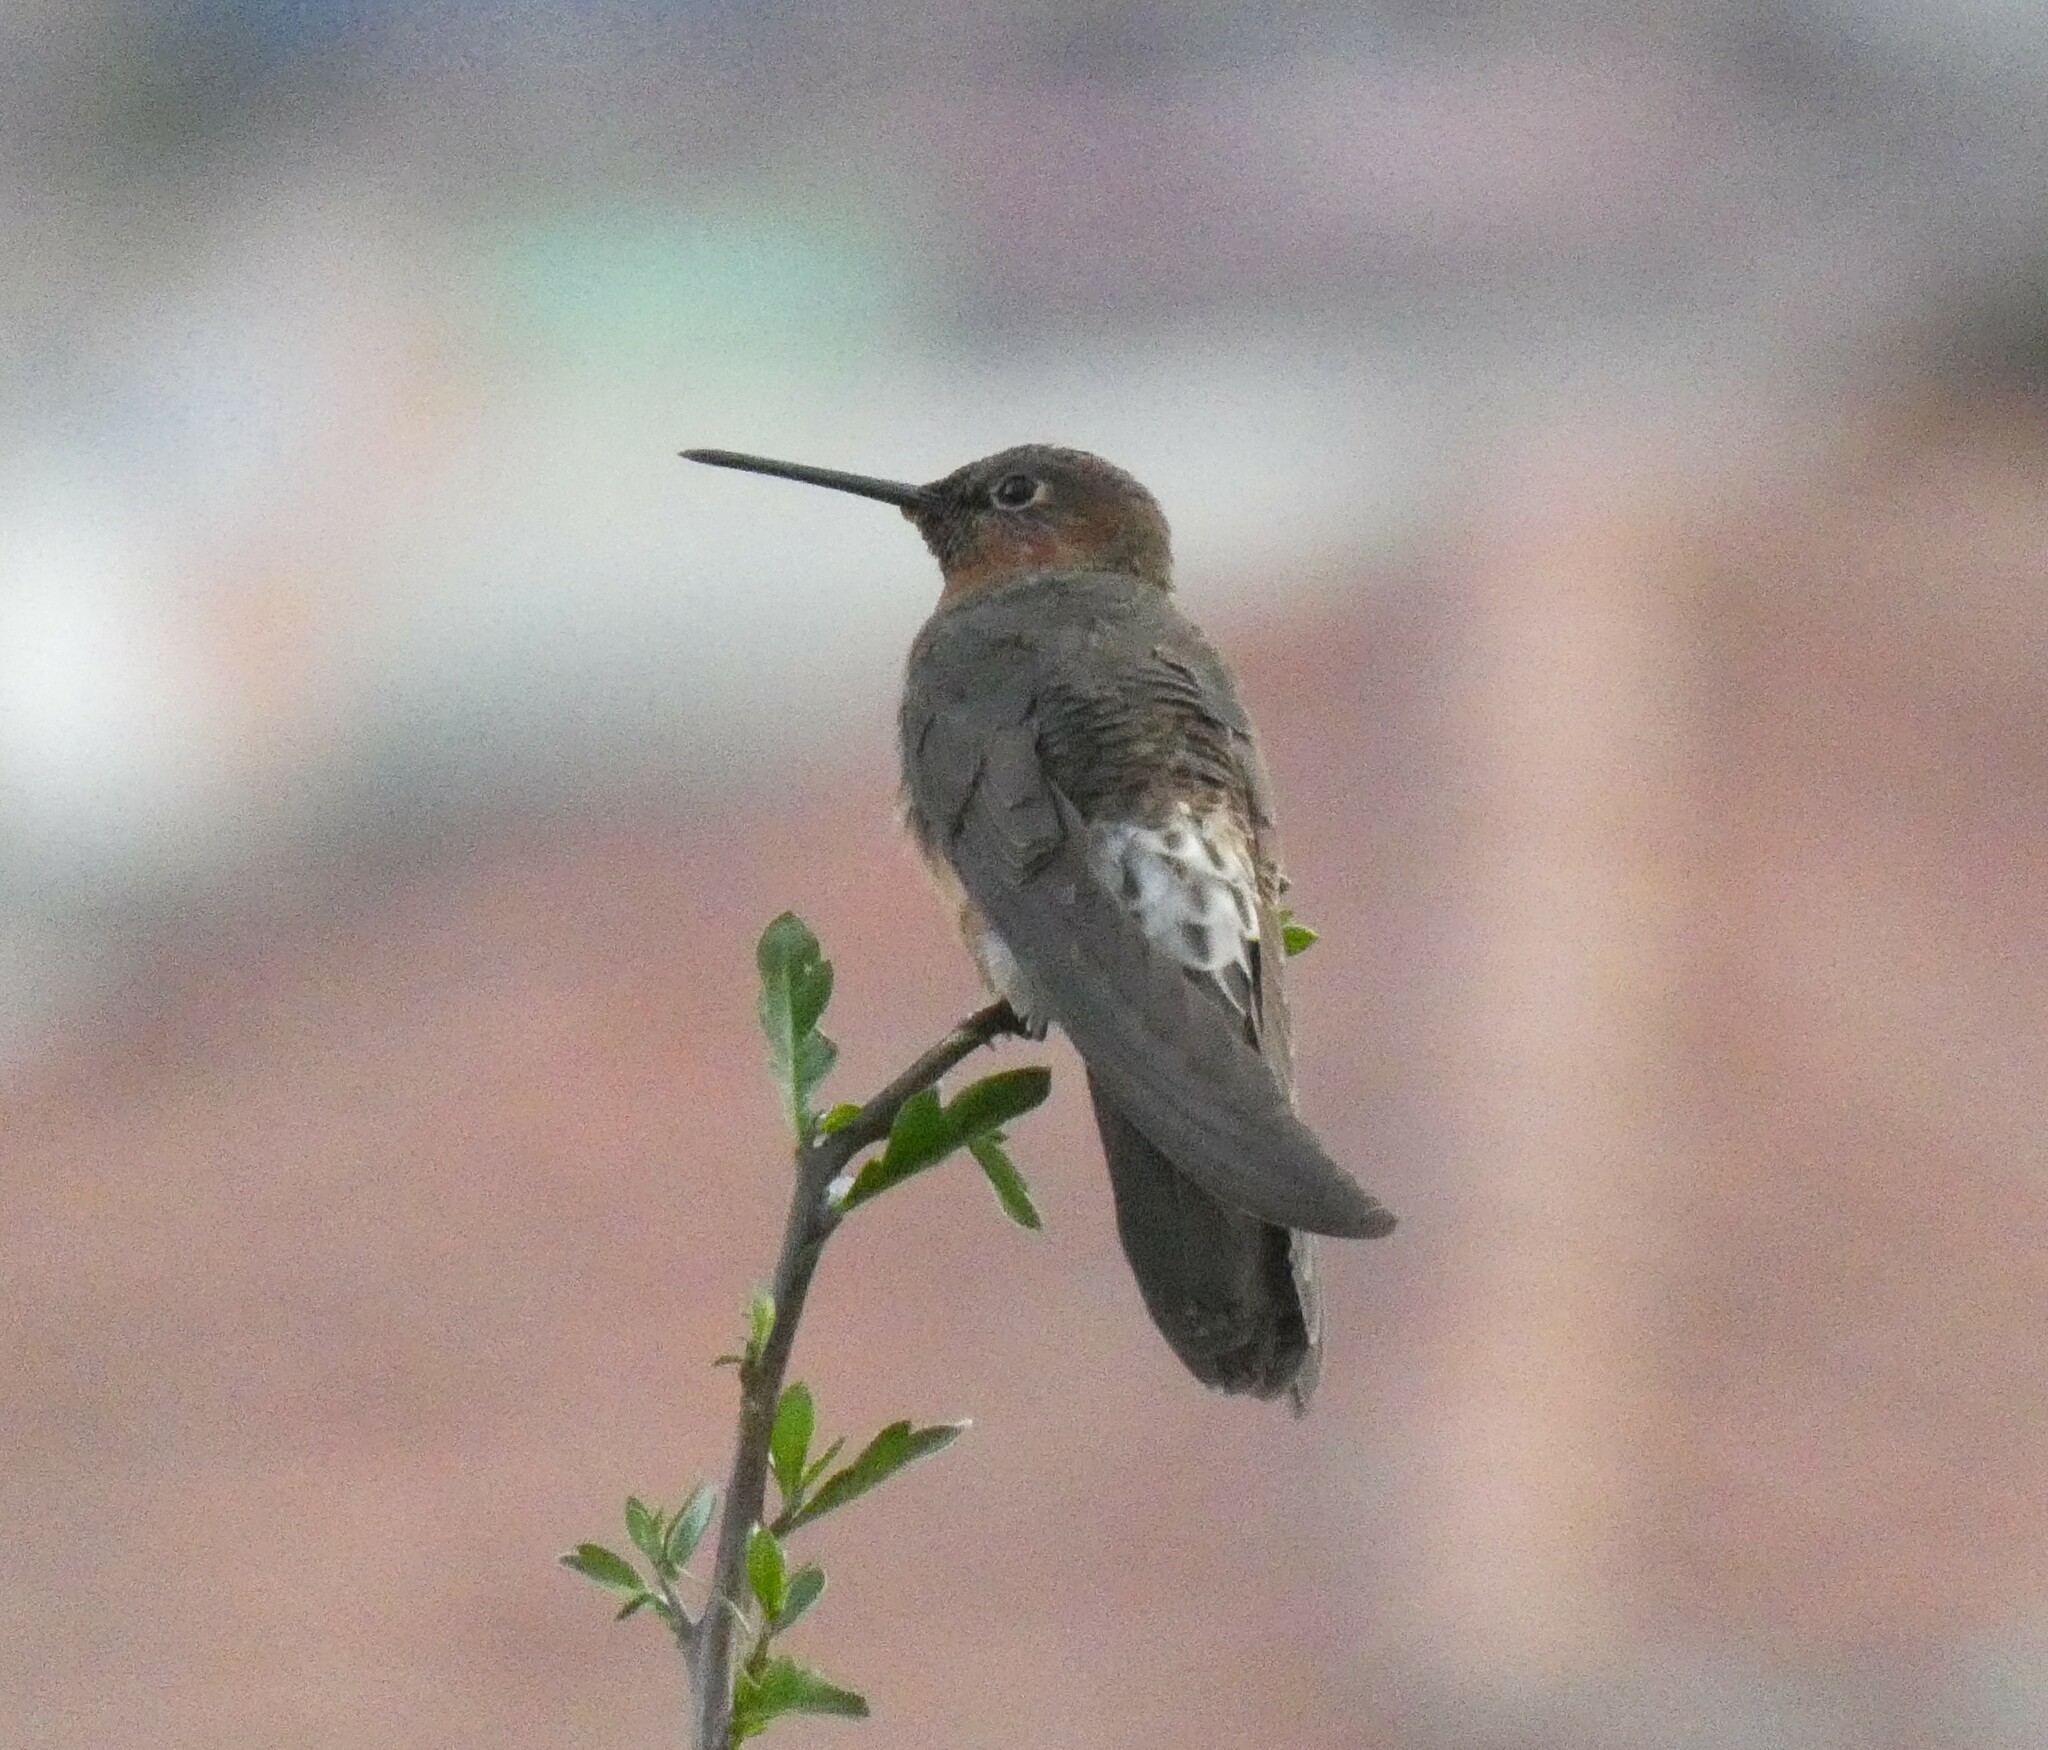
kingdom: Animalia
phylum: Chordata
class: Aves
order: Apodiformes
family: Trochilidae
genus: Patagona
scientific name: Patagona gigas
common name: Giant hummingbird
